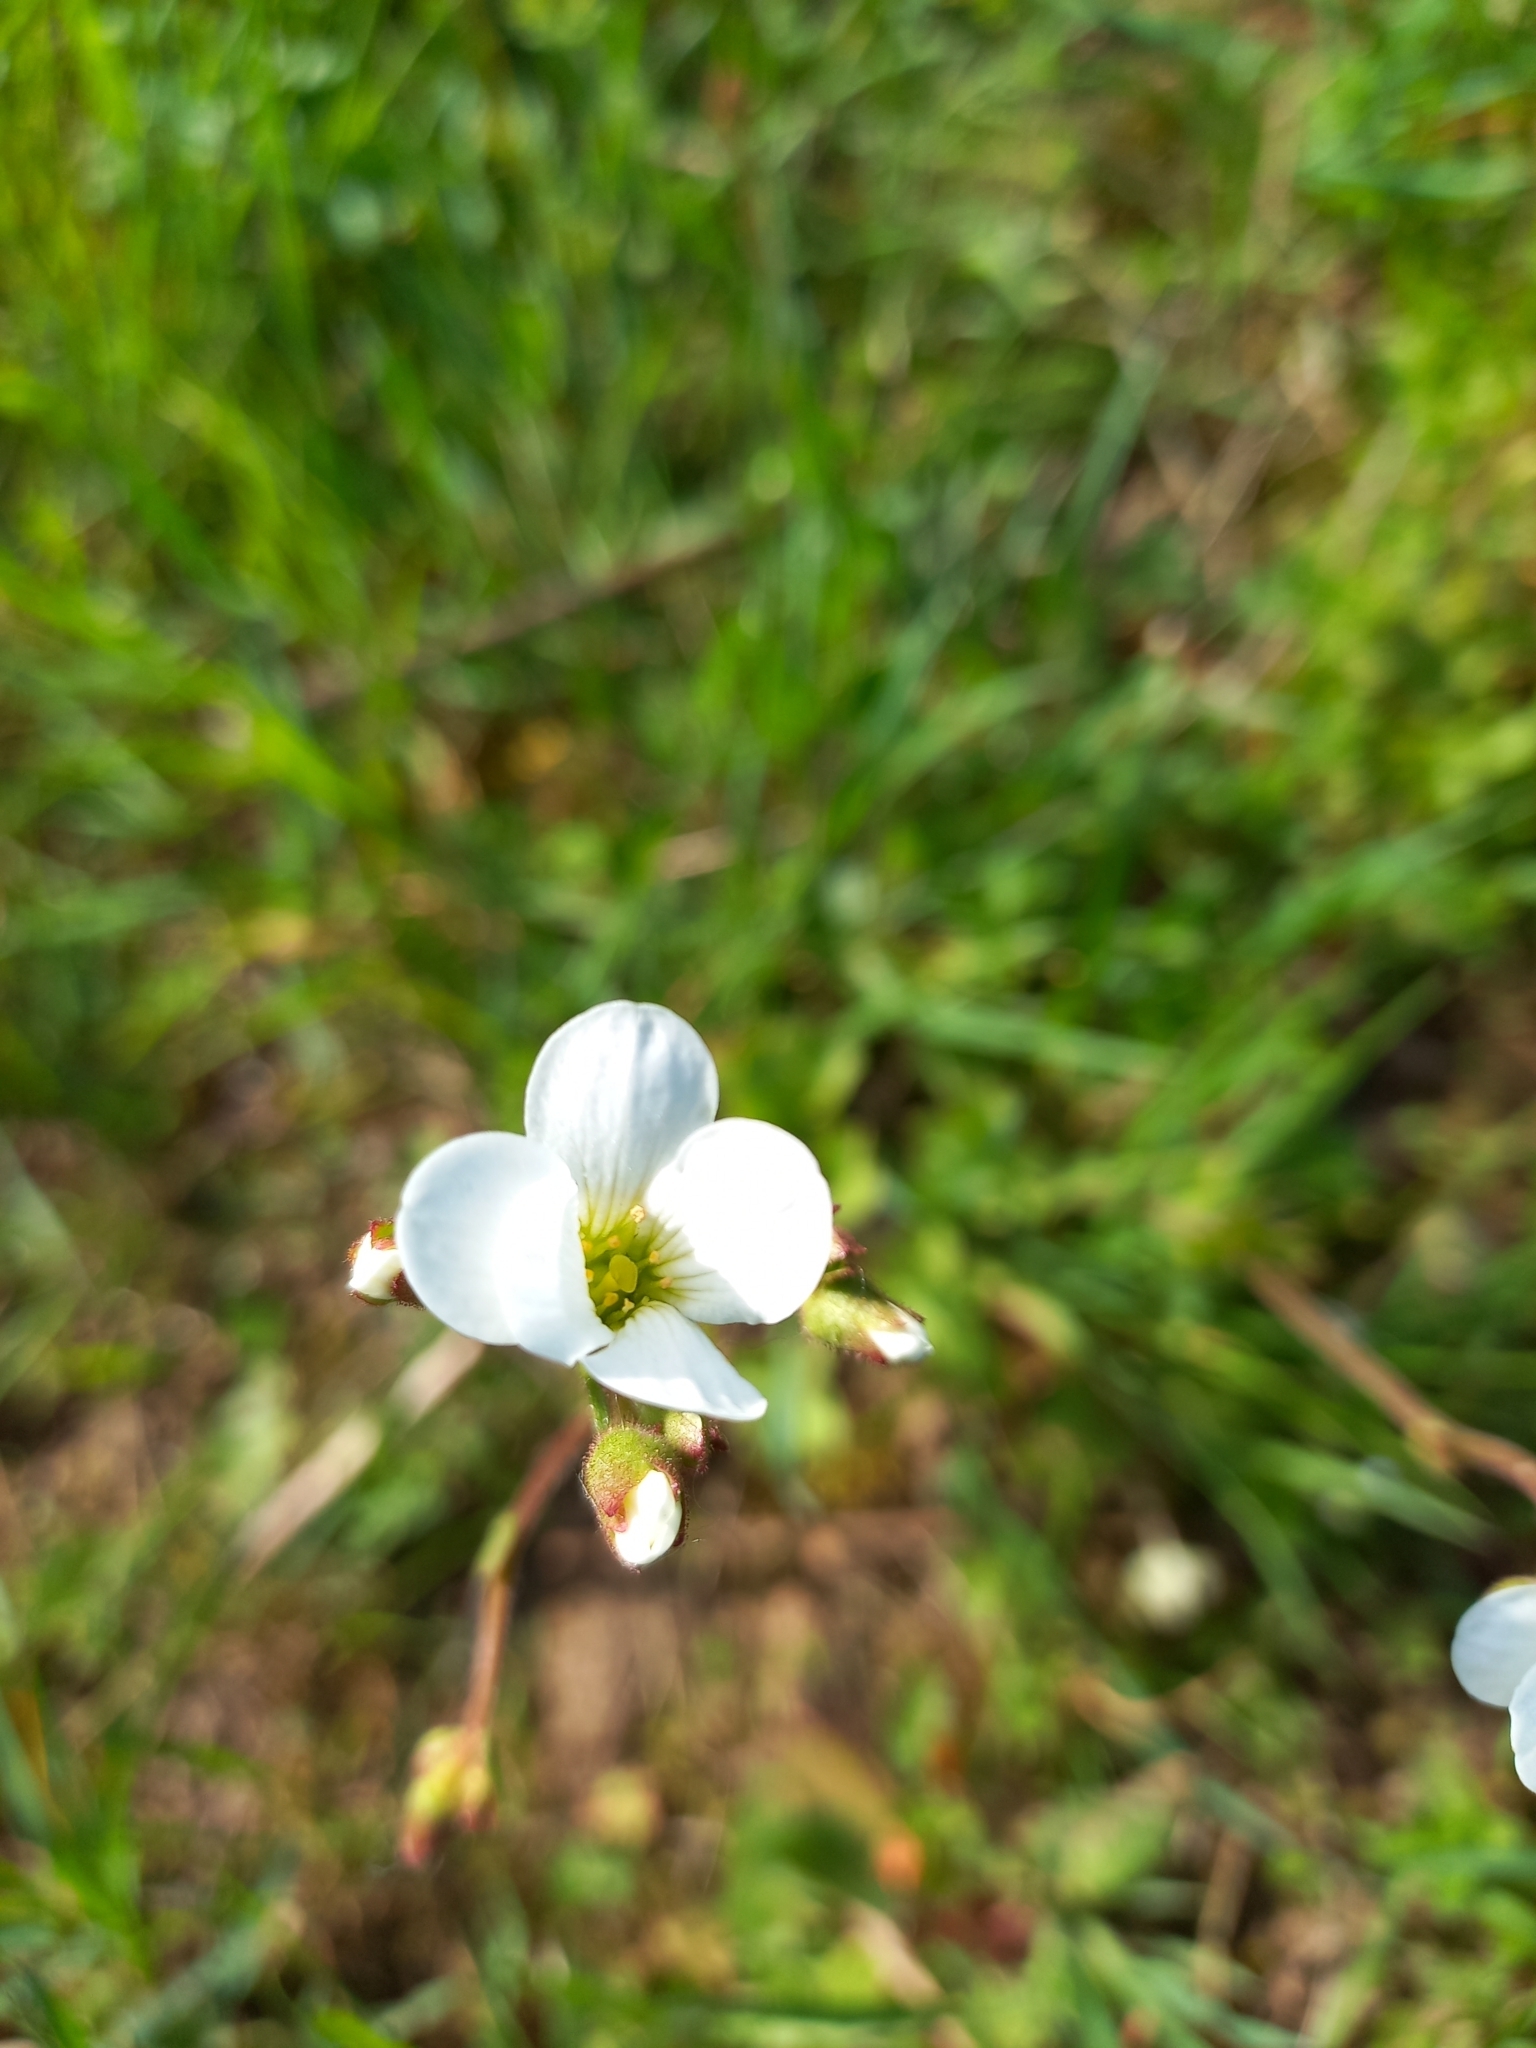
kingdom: Plantae
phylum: Tracheophyta
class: Magnoliopsida
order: Saxifragales
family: Saxifragaceae
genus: Saxifraga
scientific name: Saxifraga granulata
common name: Meadow saxifrage
